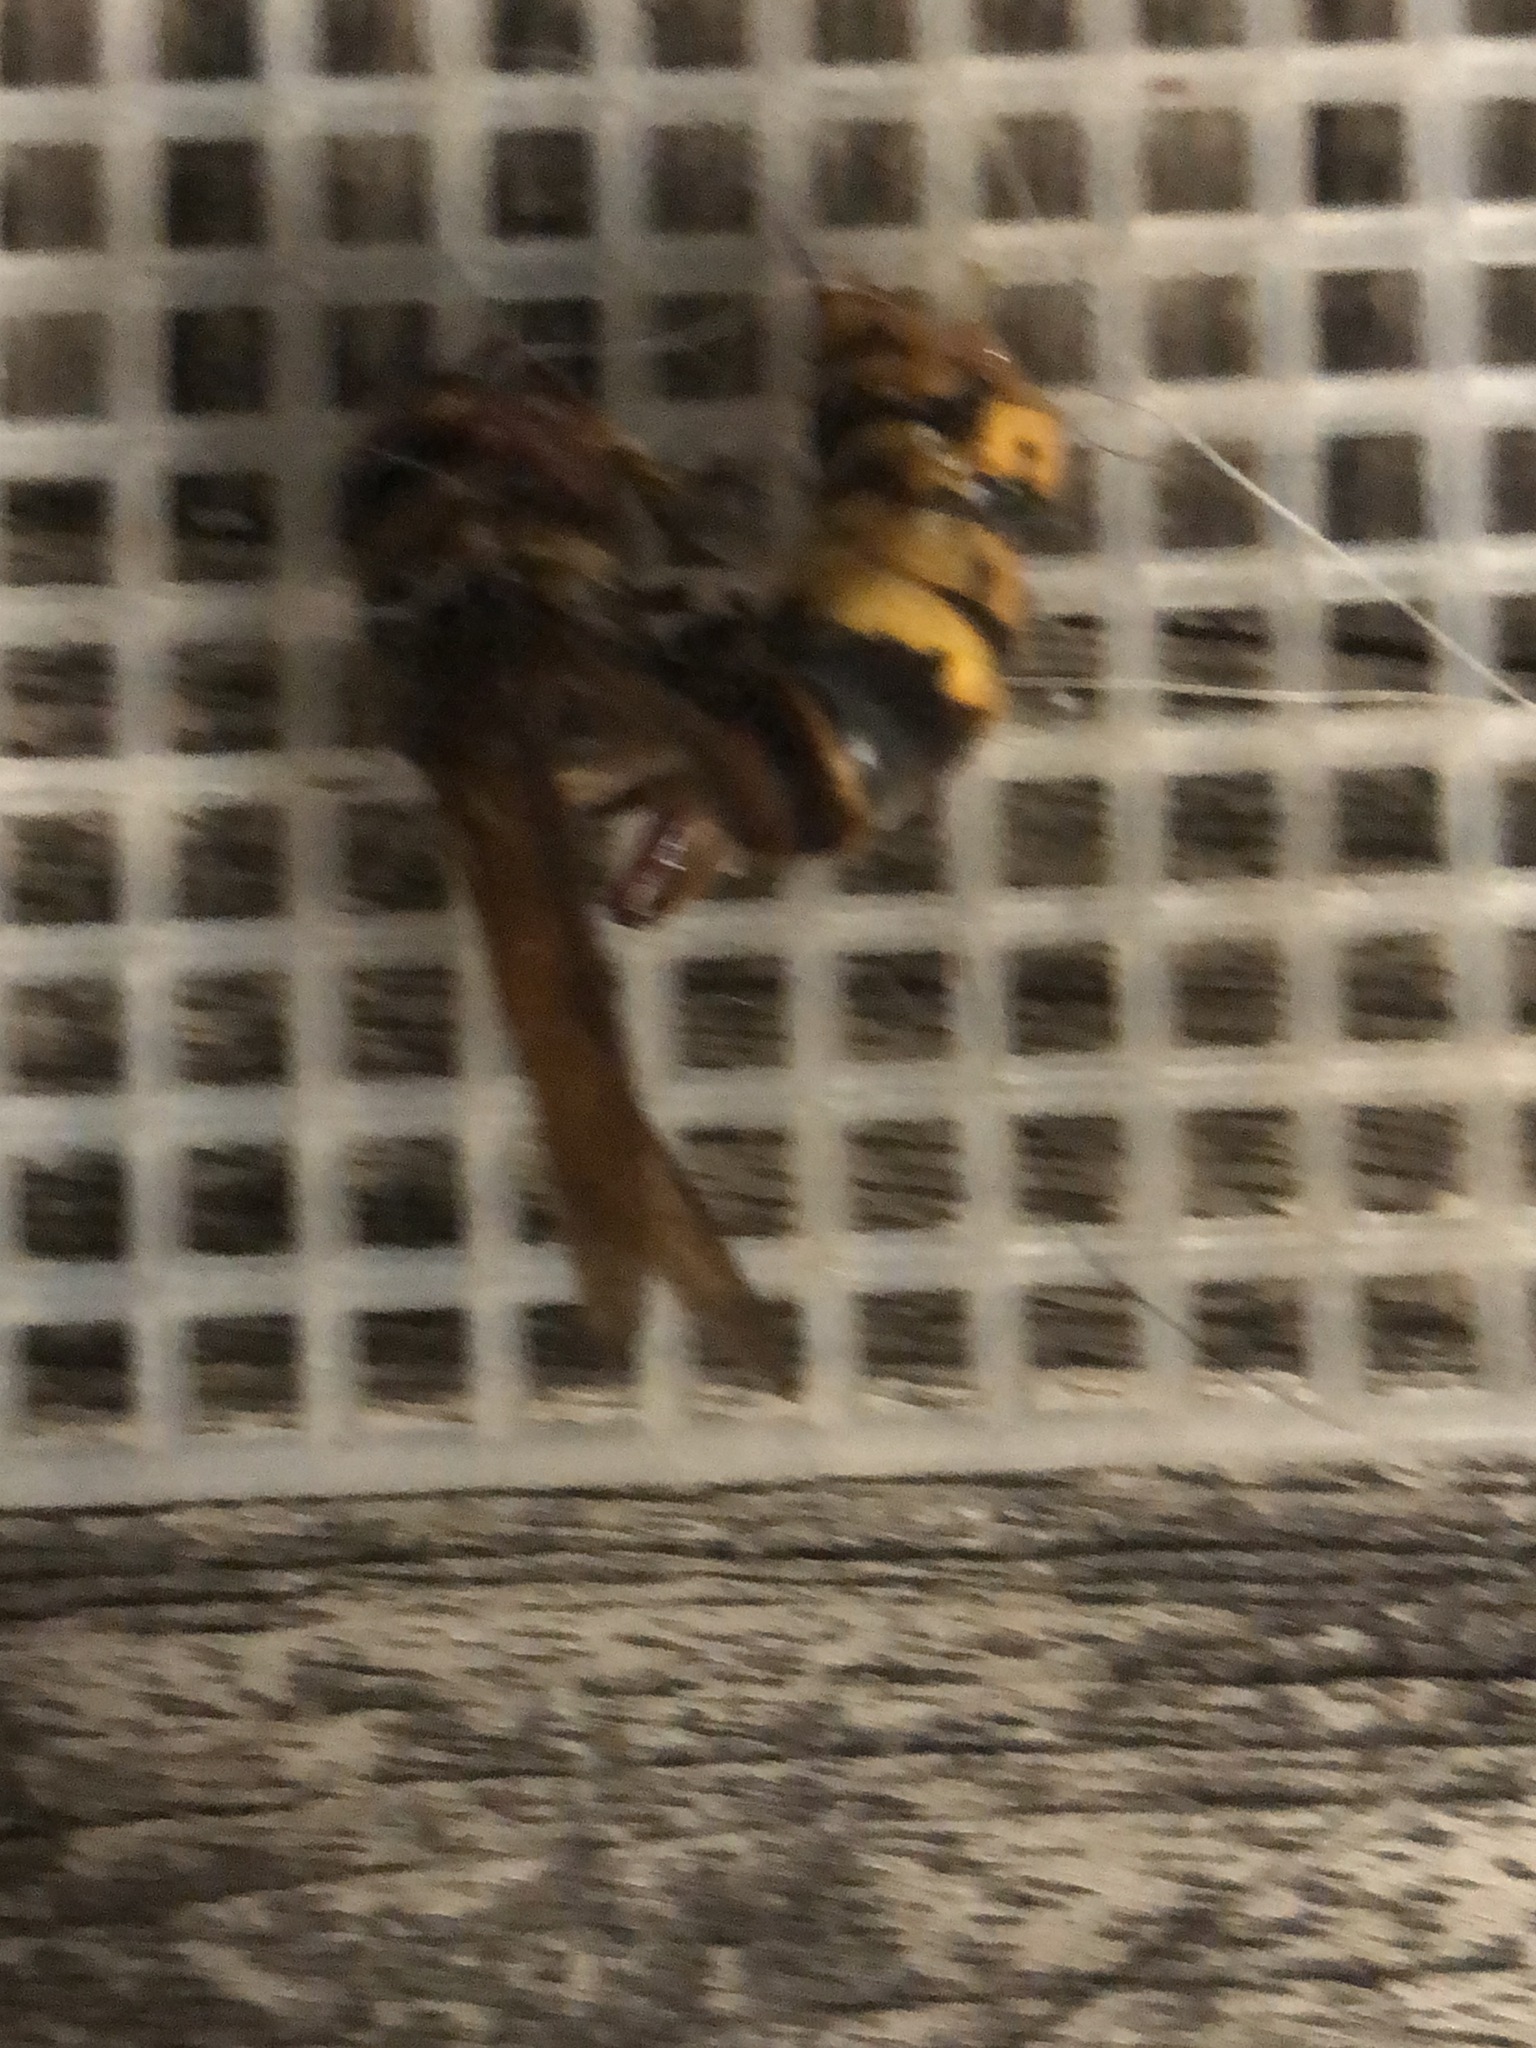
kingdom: Animalia
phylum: Arthropoda
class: Insecta
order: Hymenoptera
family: Vespidae
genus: Vespa
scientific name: Vespa crabro
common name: Hornet
